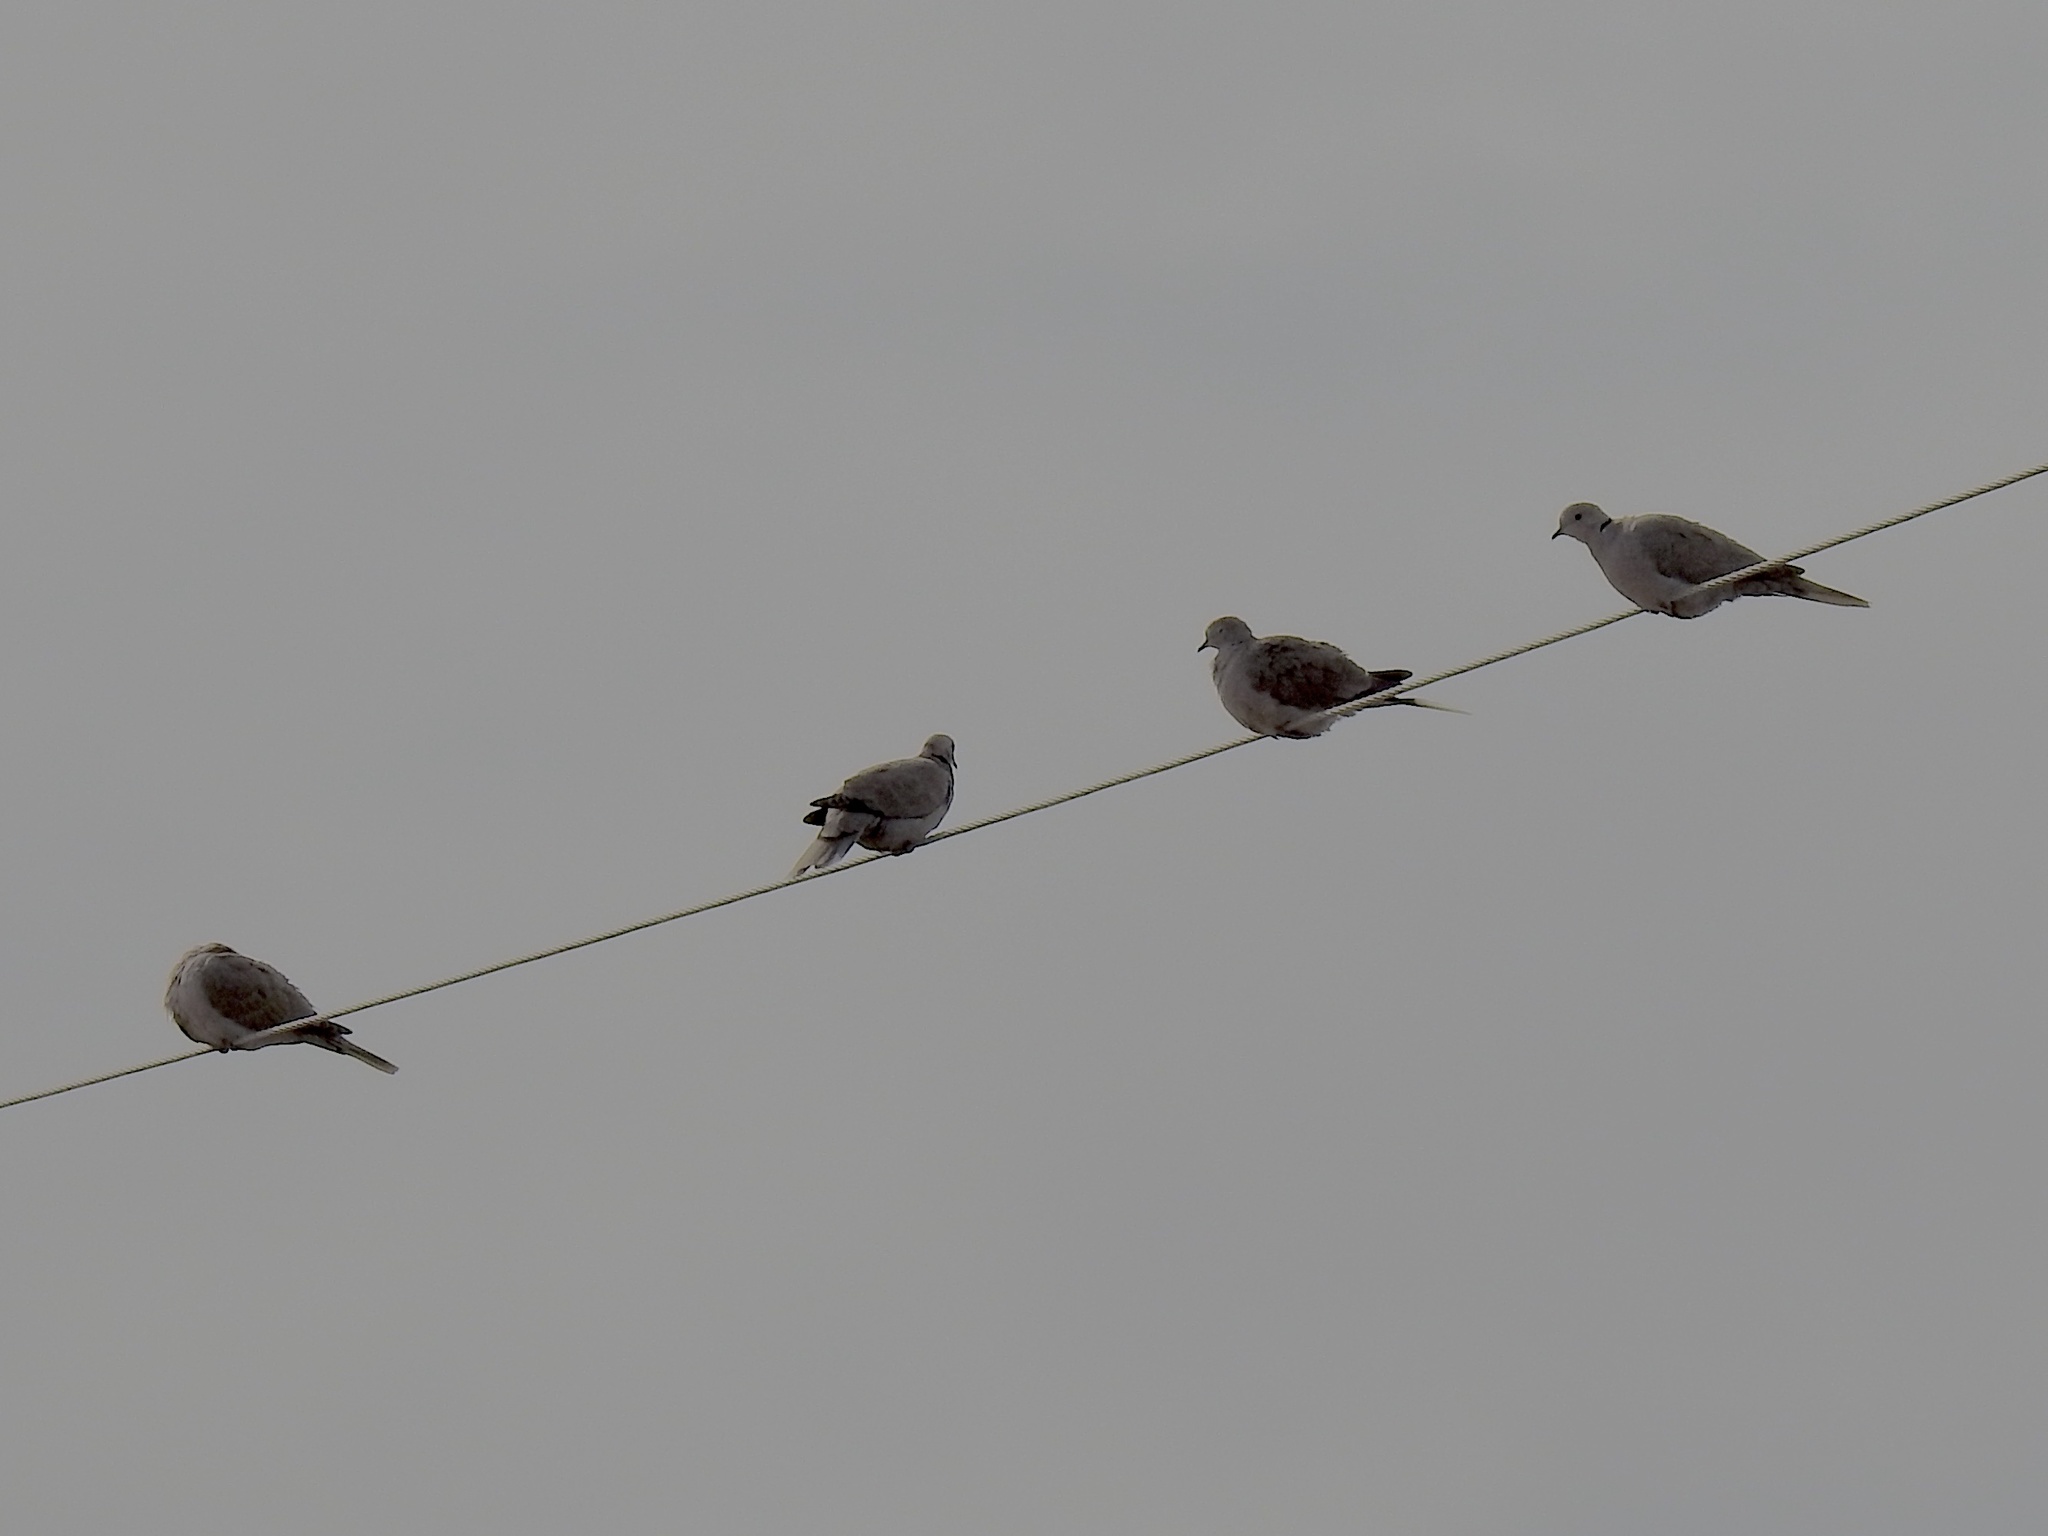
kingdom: Animalia
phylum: Chordata
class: Aves
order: Columbiformes
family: Columbidae
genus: Streptopelia
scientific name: Streptopelia decaocto
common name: Eurasian collared dove
